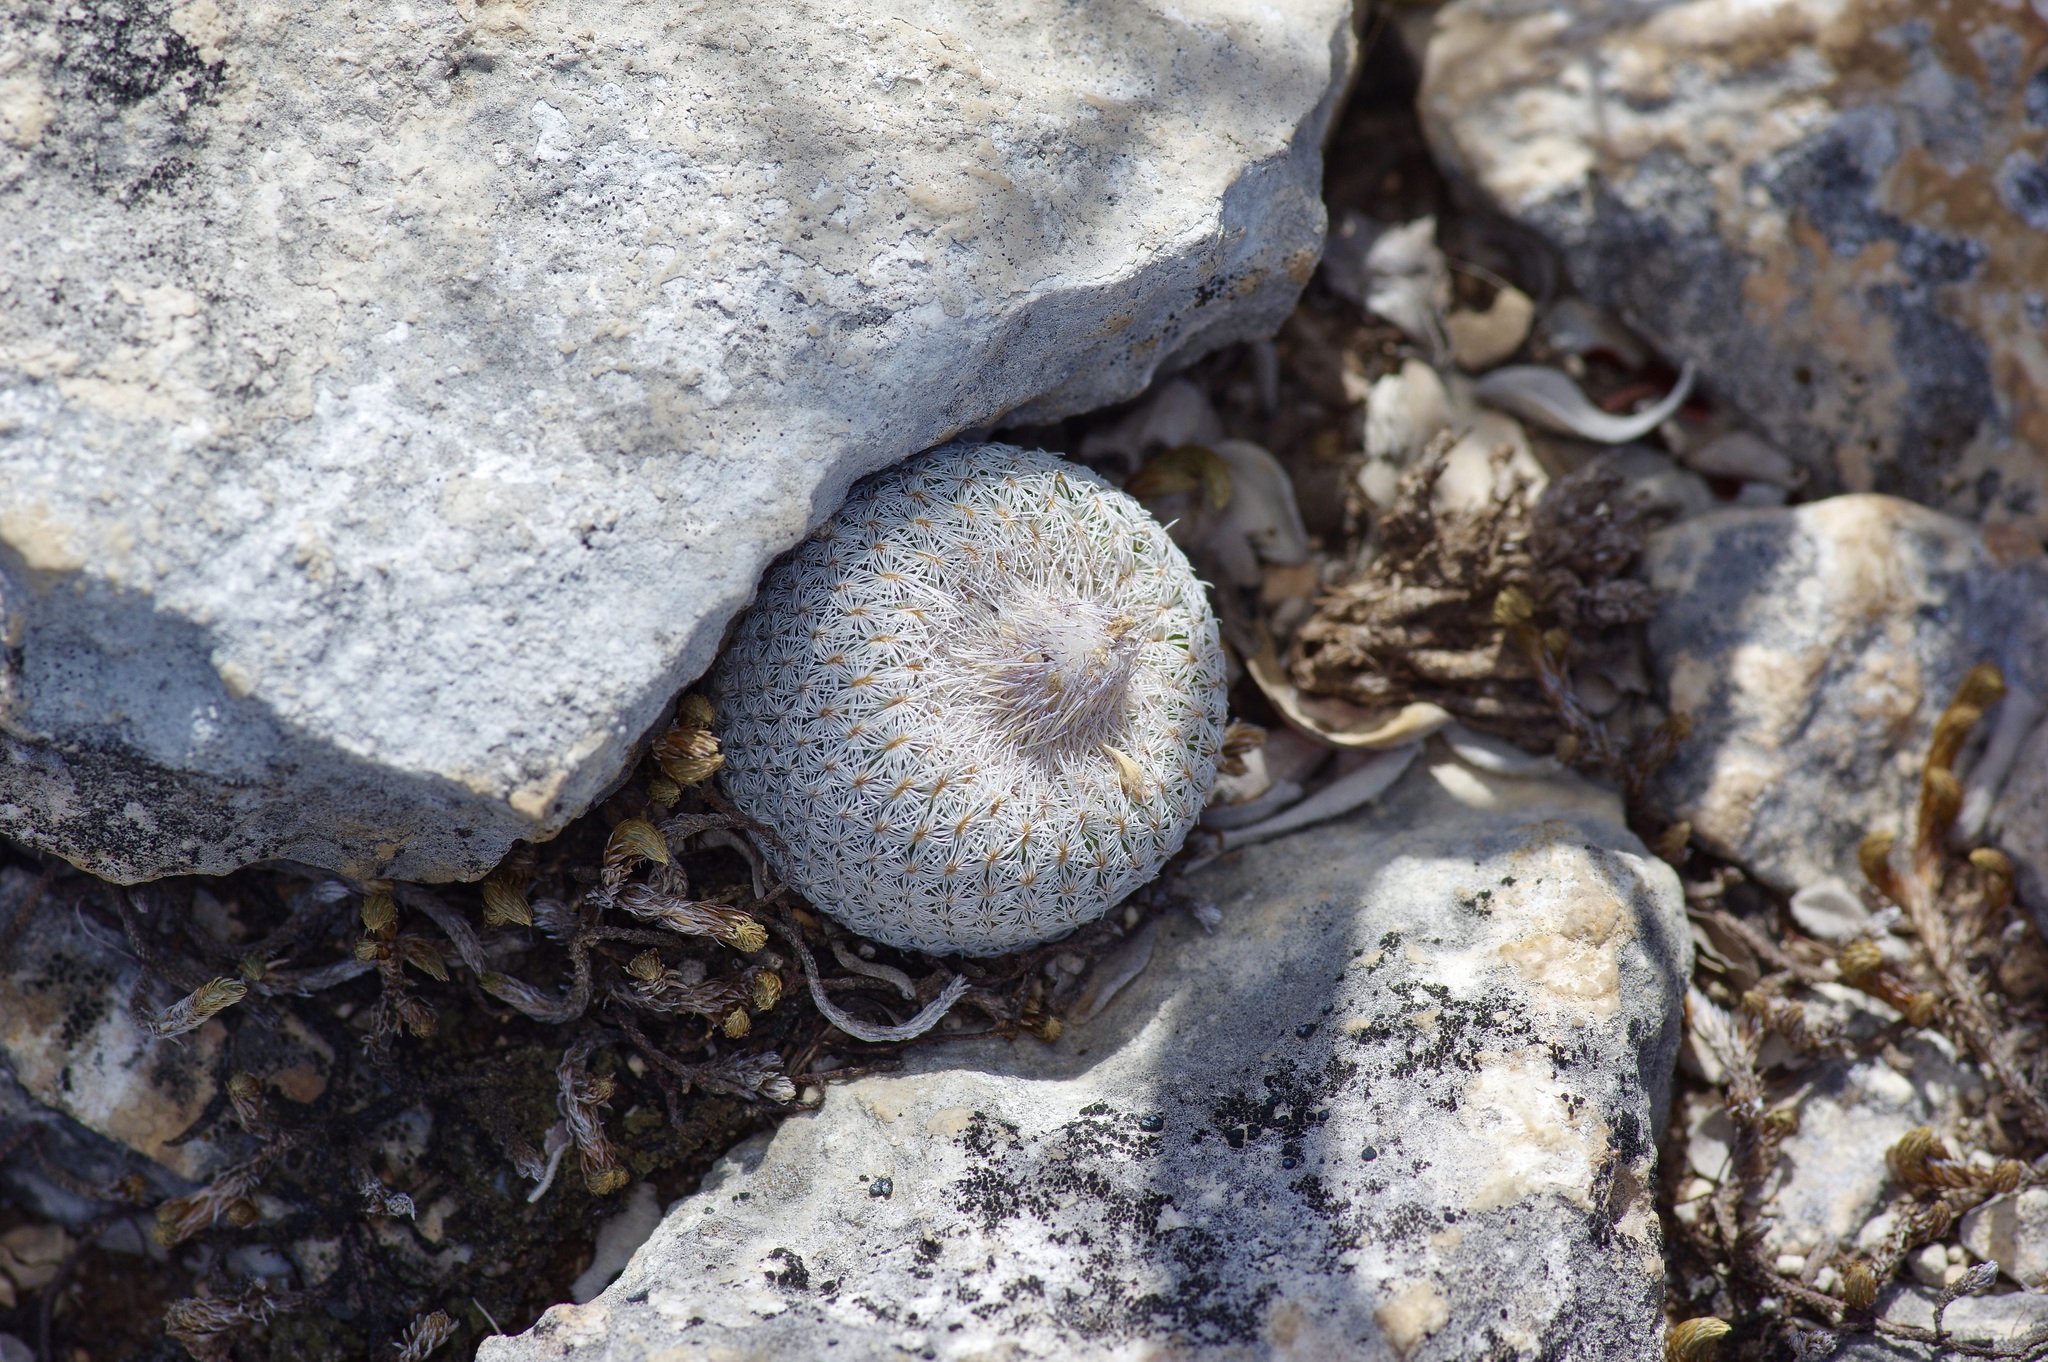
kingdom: Plantae
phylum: Tracheophyta
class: Magnoliopsida
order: Caryophyllales
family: Cactaceae
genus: Epithelantha
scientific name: Epithelantha micromeris
